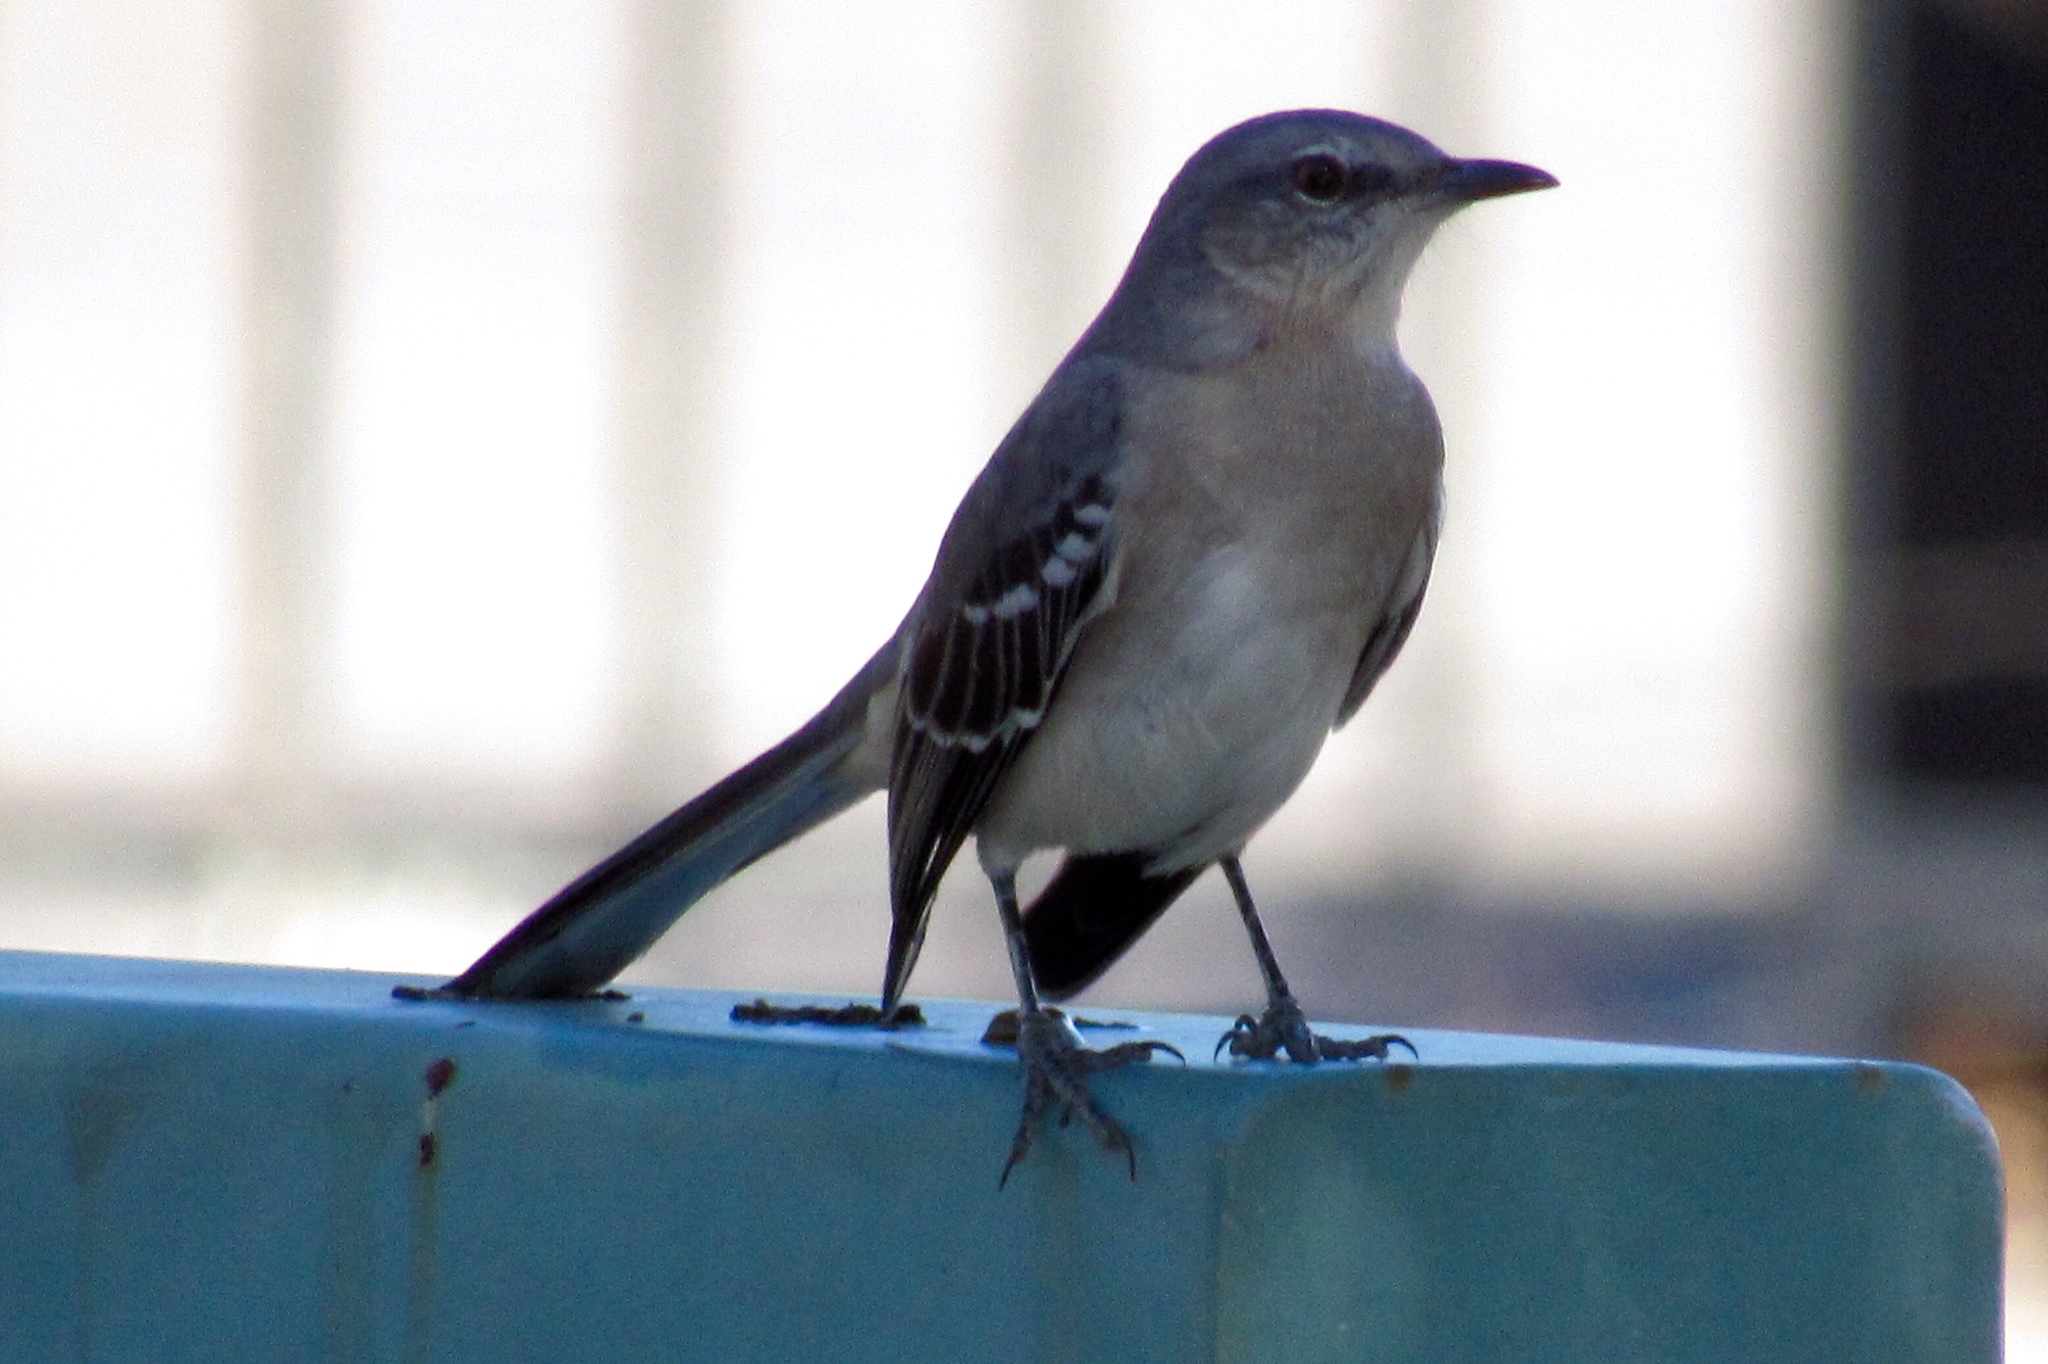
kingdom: Animalia
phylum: Chordata
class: Aves
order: Passeriformes
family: Mimidae
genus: Mimus
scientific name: Mimus polyglottos
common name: Northern mockingbird
